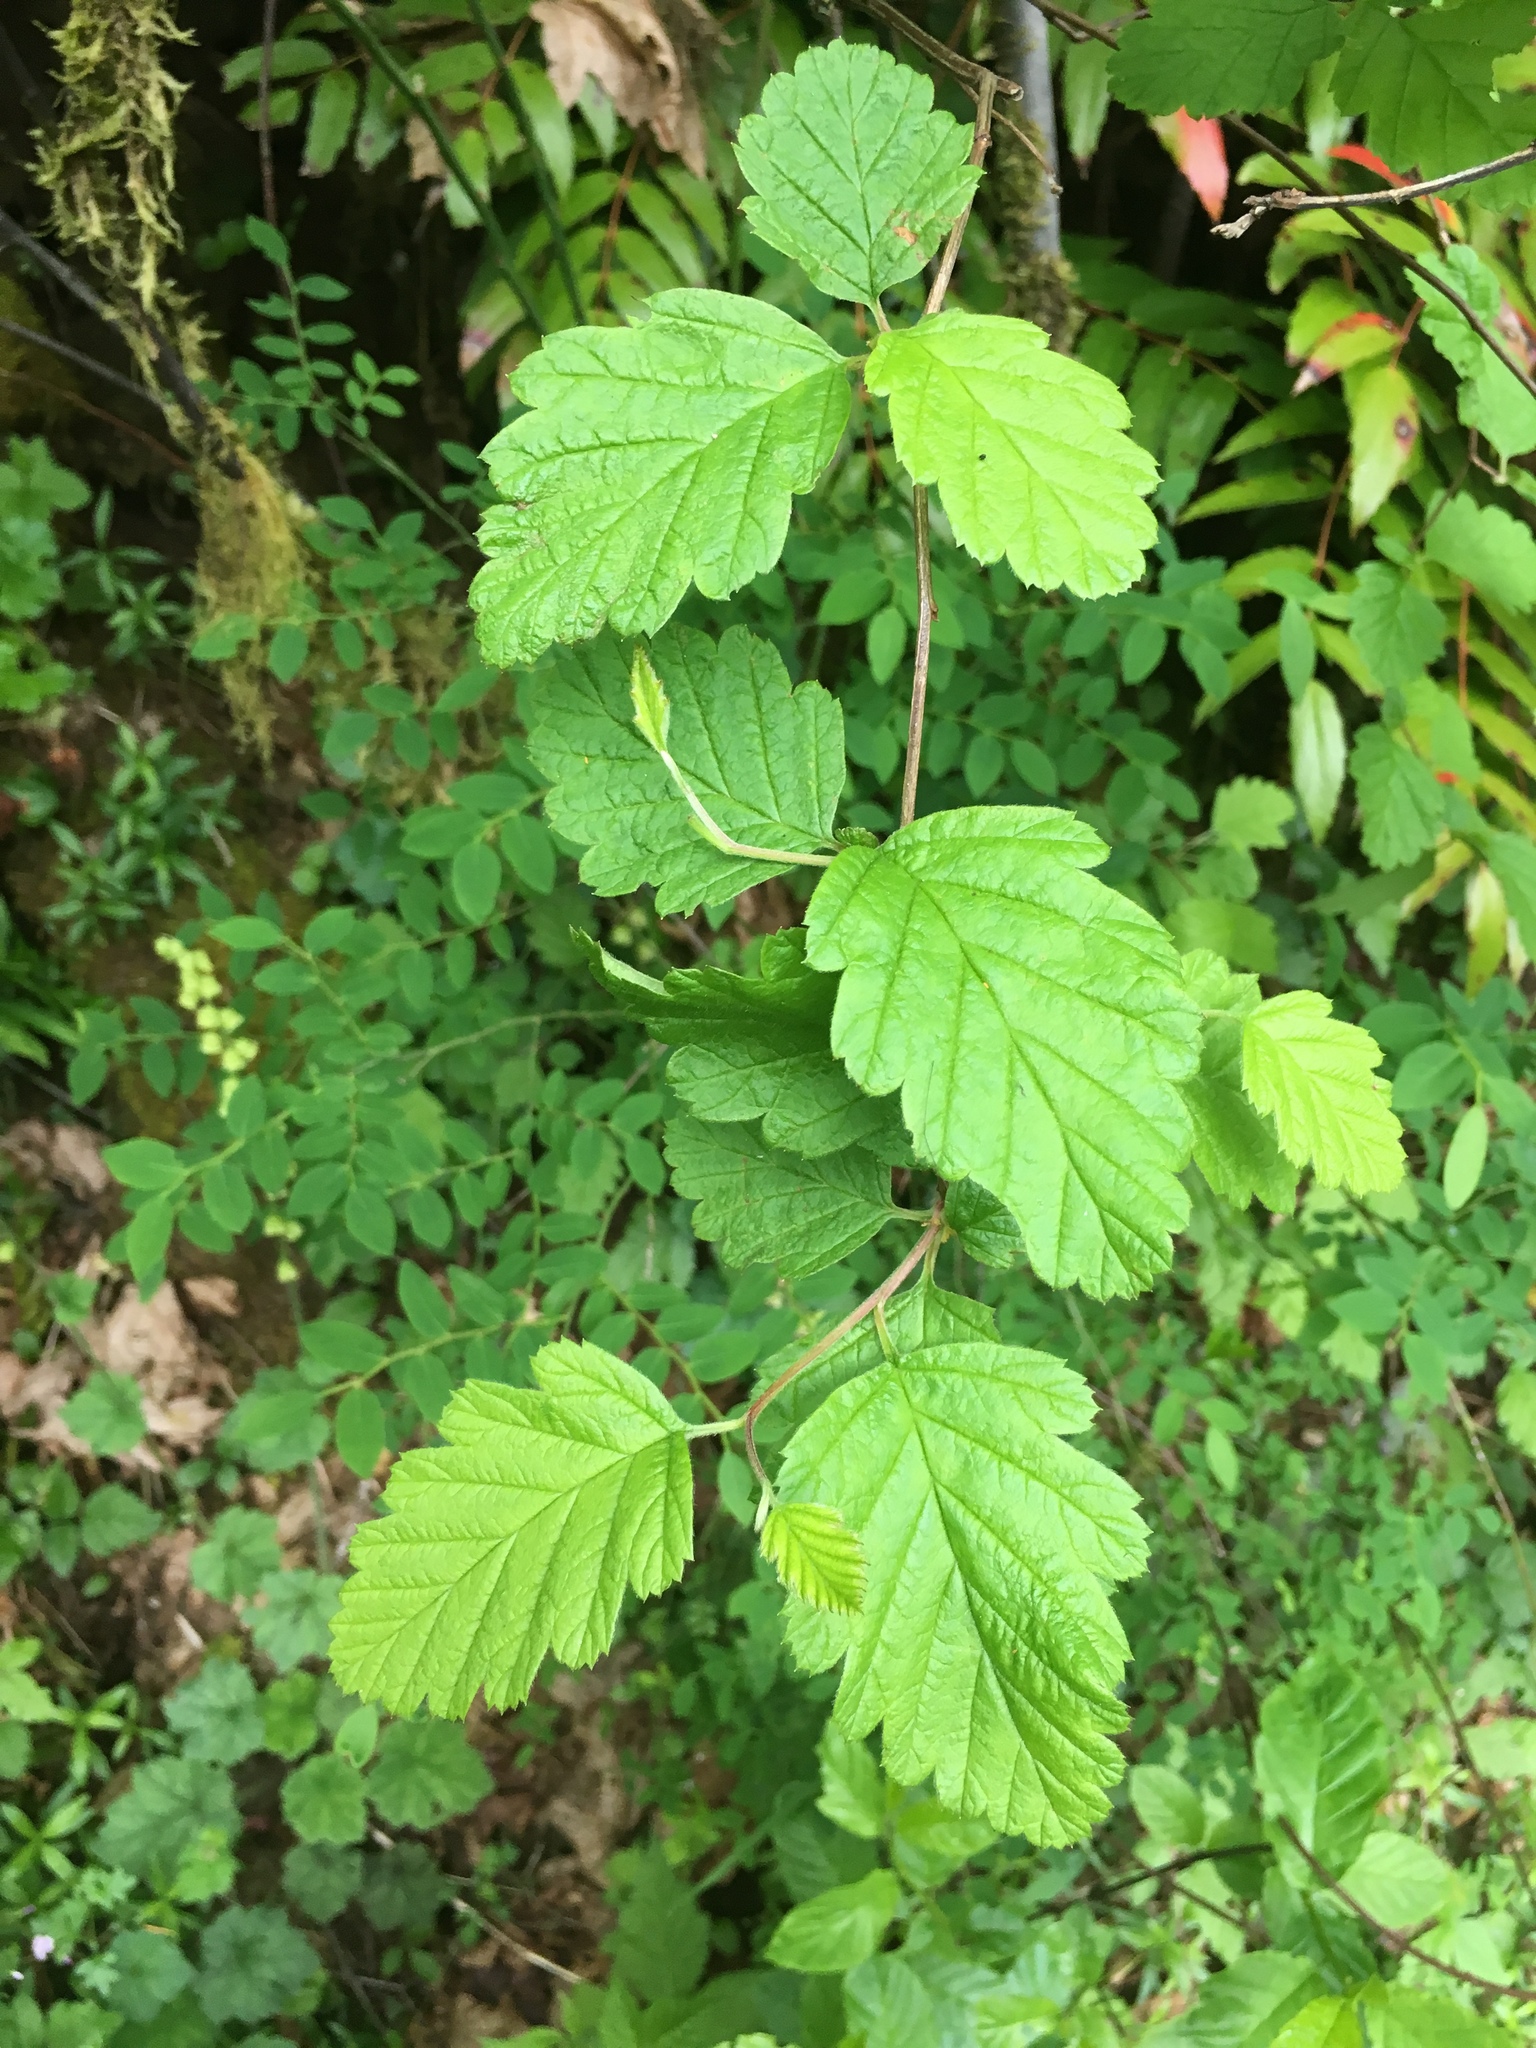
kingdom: Plantae
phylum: Tracheophyta
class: Magnoliopsida
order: Rosales
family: Rosaceae
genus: Holodiscus
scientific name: Holodiscus discolor
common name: Oceanspray
